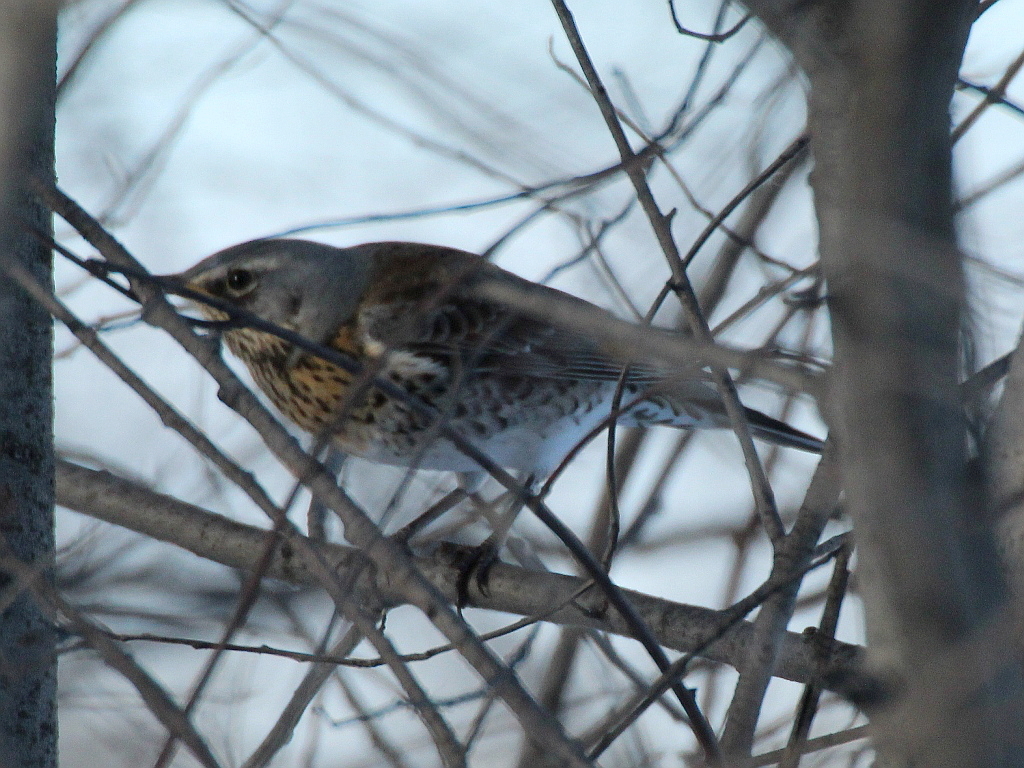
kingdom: Animalia
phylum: Chordata
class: Aves
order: Passeriformes
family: Turdidae
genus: Turdus
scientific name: Turdus pilaris
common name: Fieldfare
